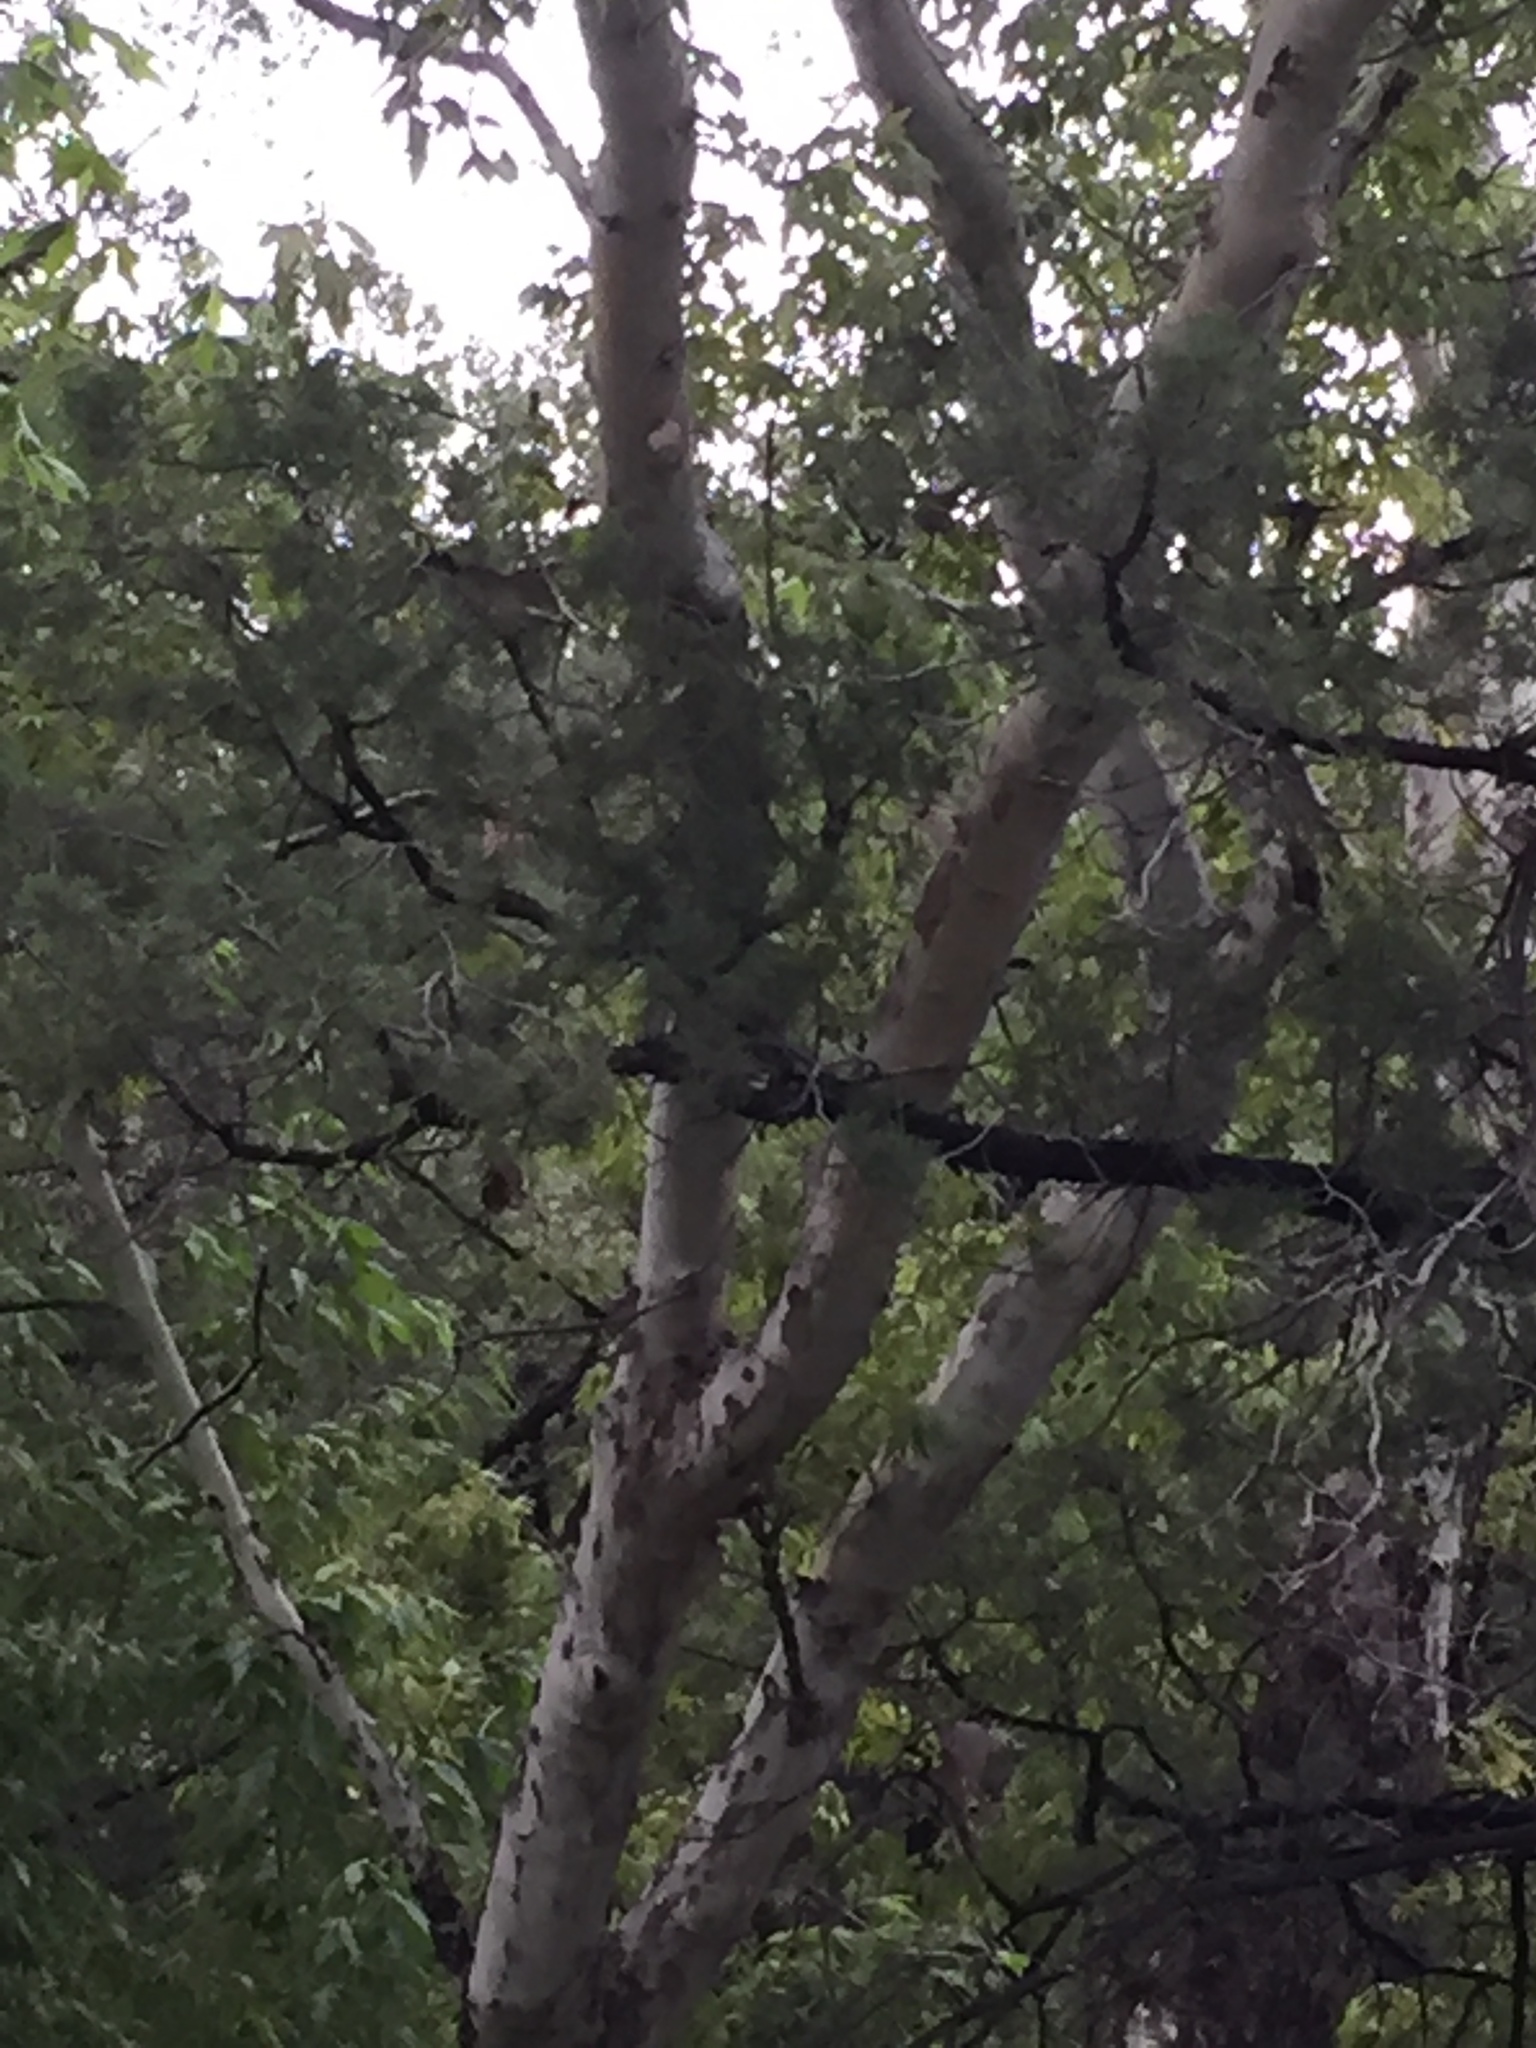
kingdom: Plantae
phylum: Tracheophyta
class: Magnoliopsida
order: Proteales
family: Platanaceae
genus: Platanus
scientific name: Platanus wrightii
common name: Arizona sycamore
